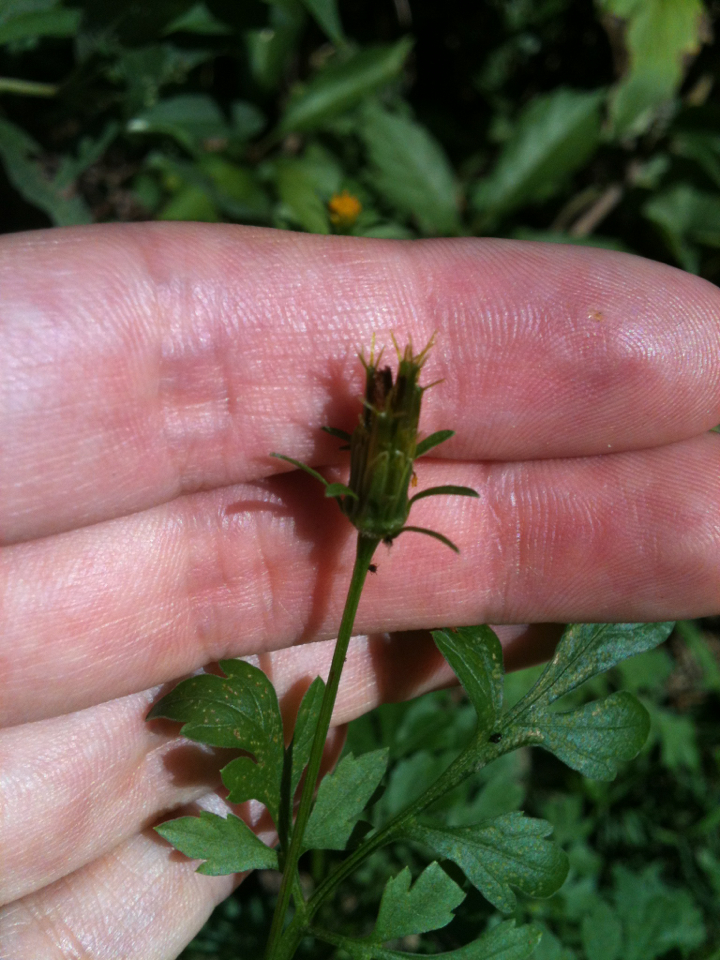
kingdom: Plantae
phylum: Tracheophyta
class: Magnoliopsida
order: Asterales
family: Asteraceae
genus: Bidens
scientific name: Bidens bipinnata
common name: Spanish-needles
